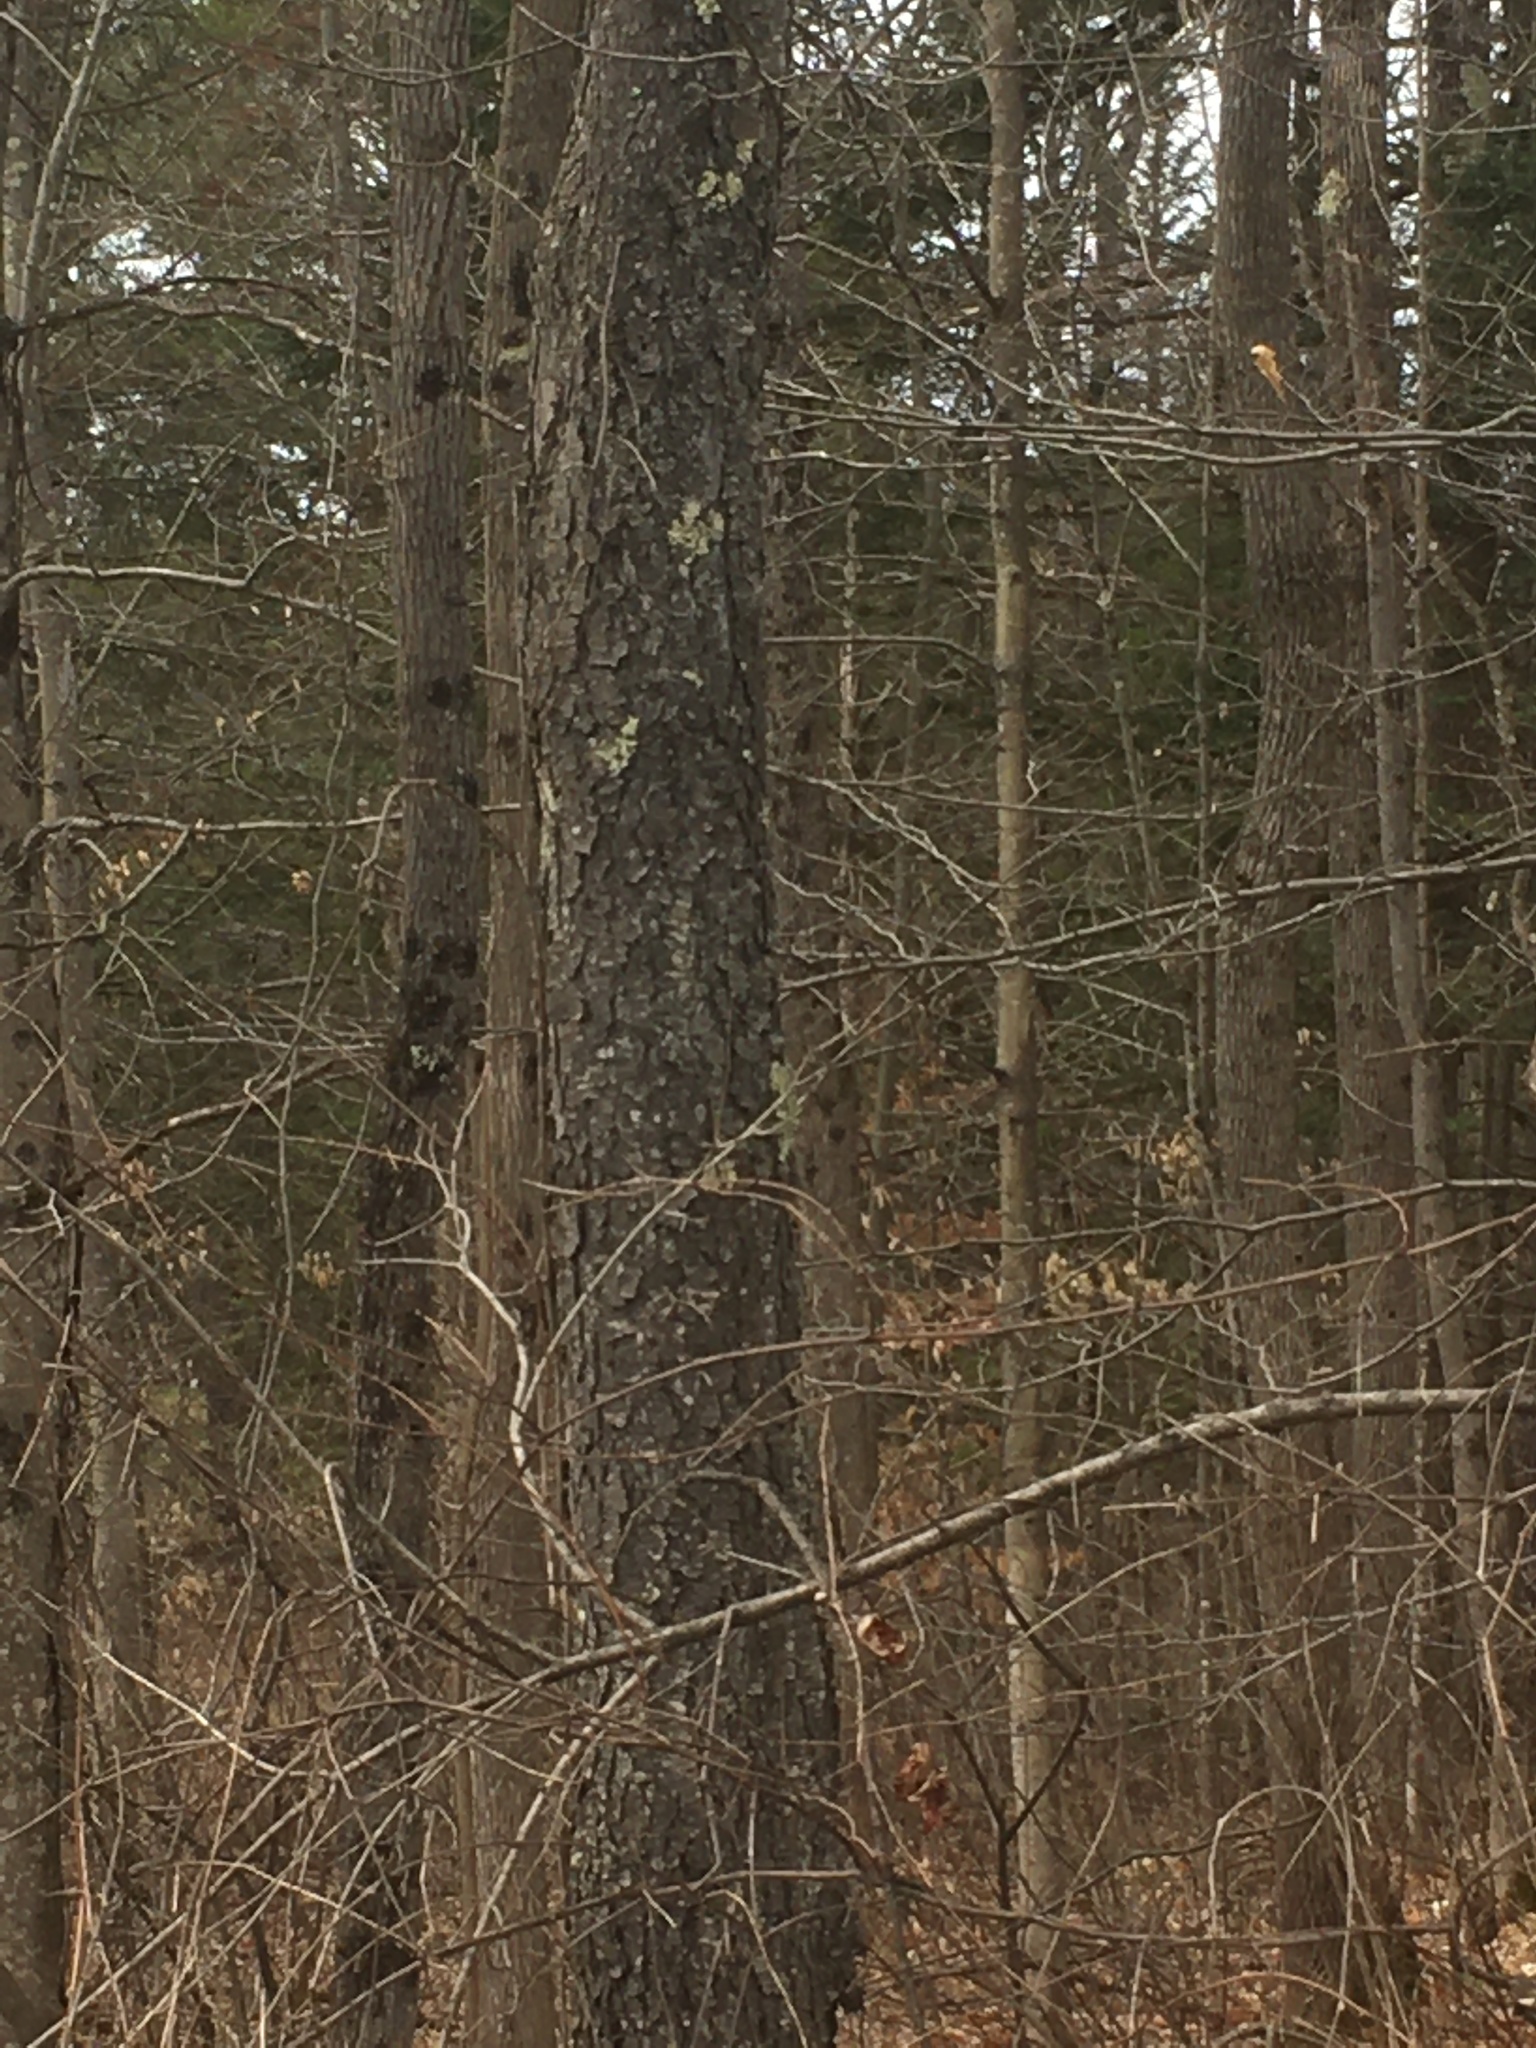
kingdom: Plantae
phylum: Tracheophyta
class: Magnoliopsida
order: Rosales
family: Rosaceae
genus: Prunus
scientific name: Prunus serotina
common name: Black cherry
